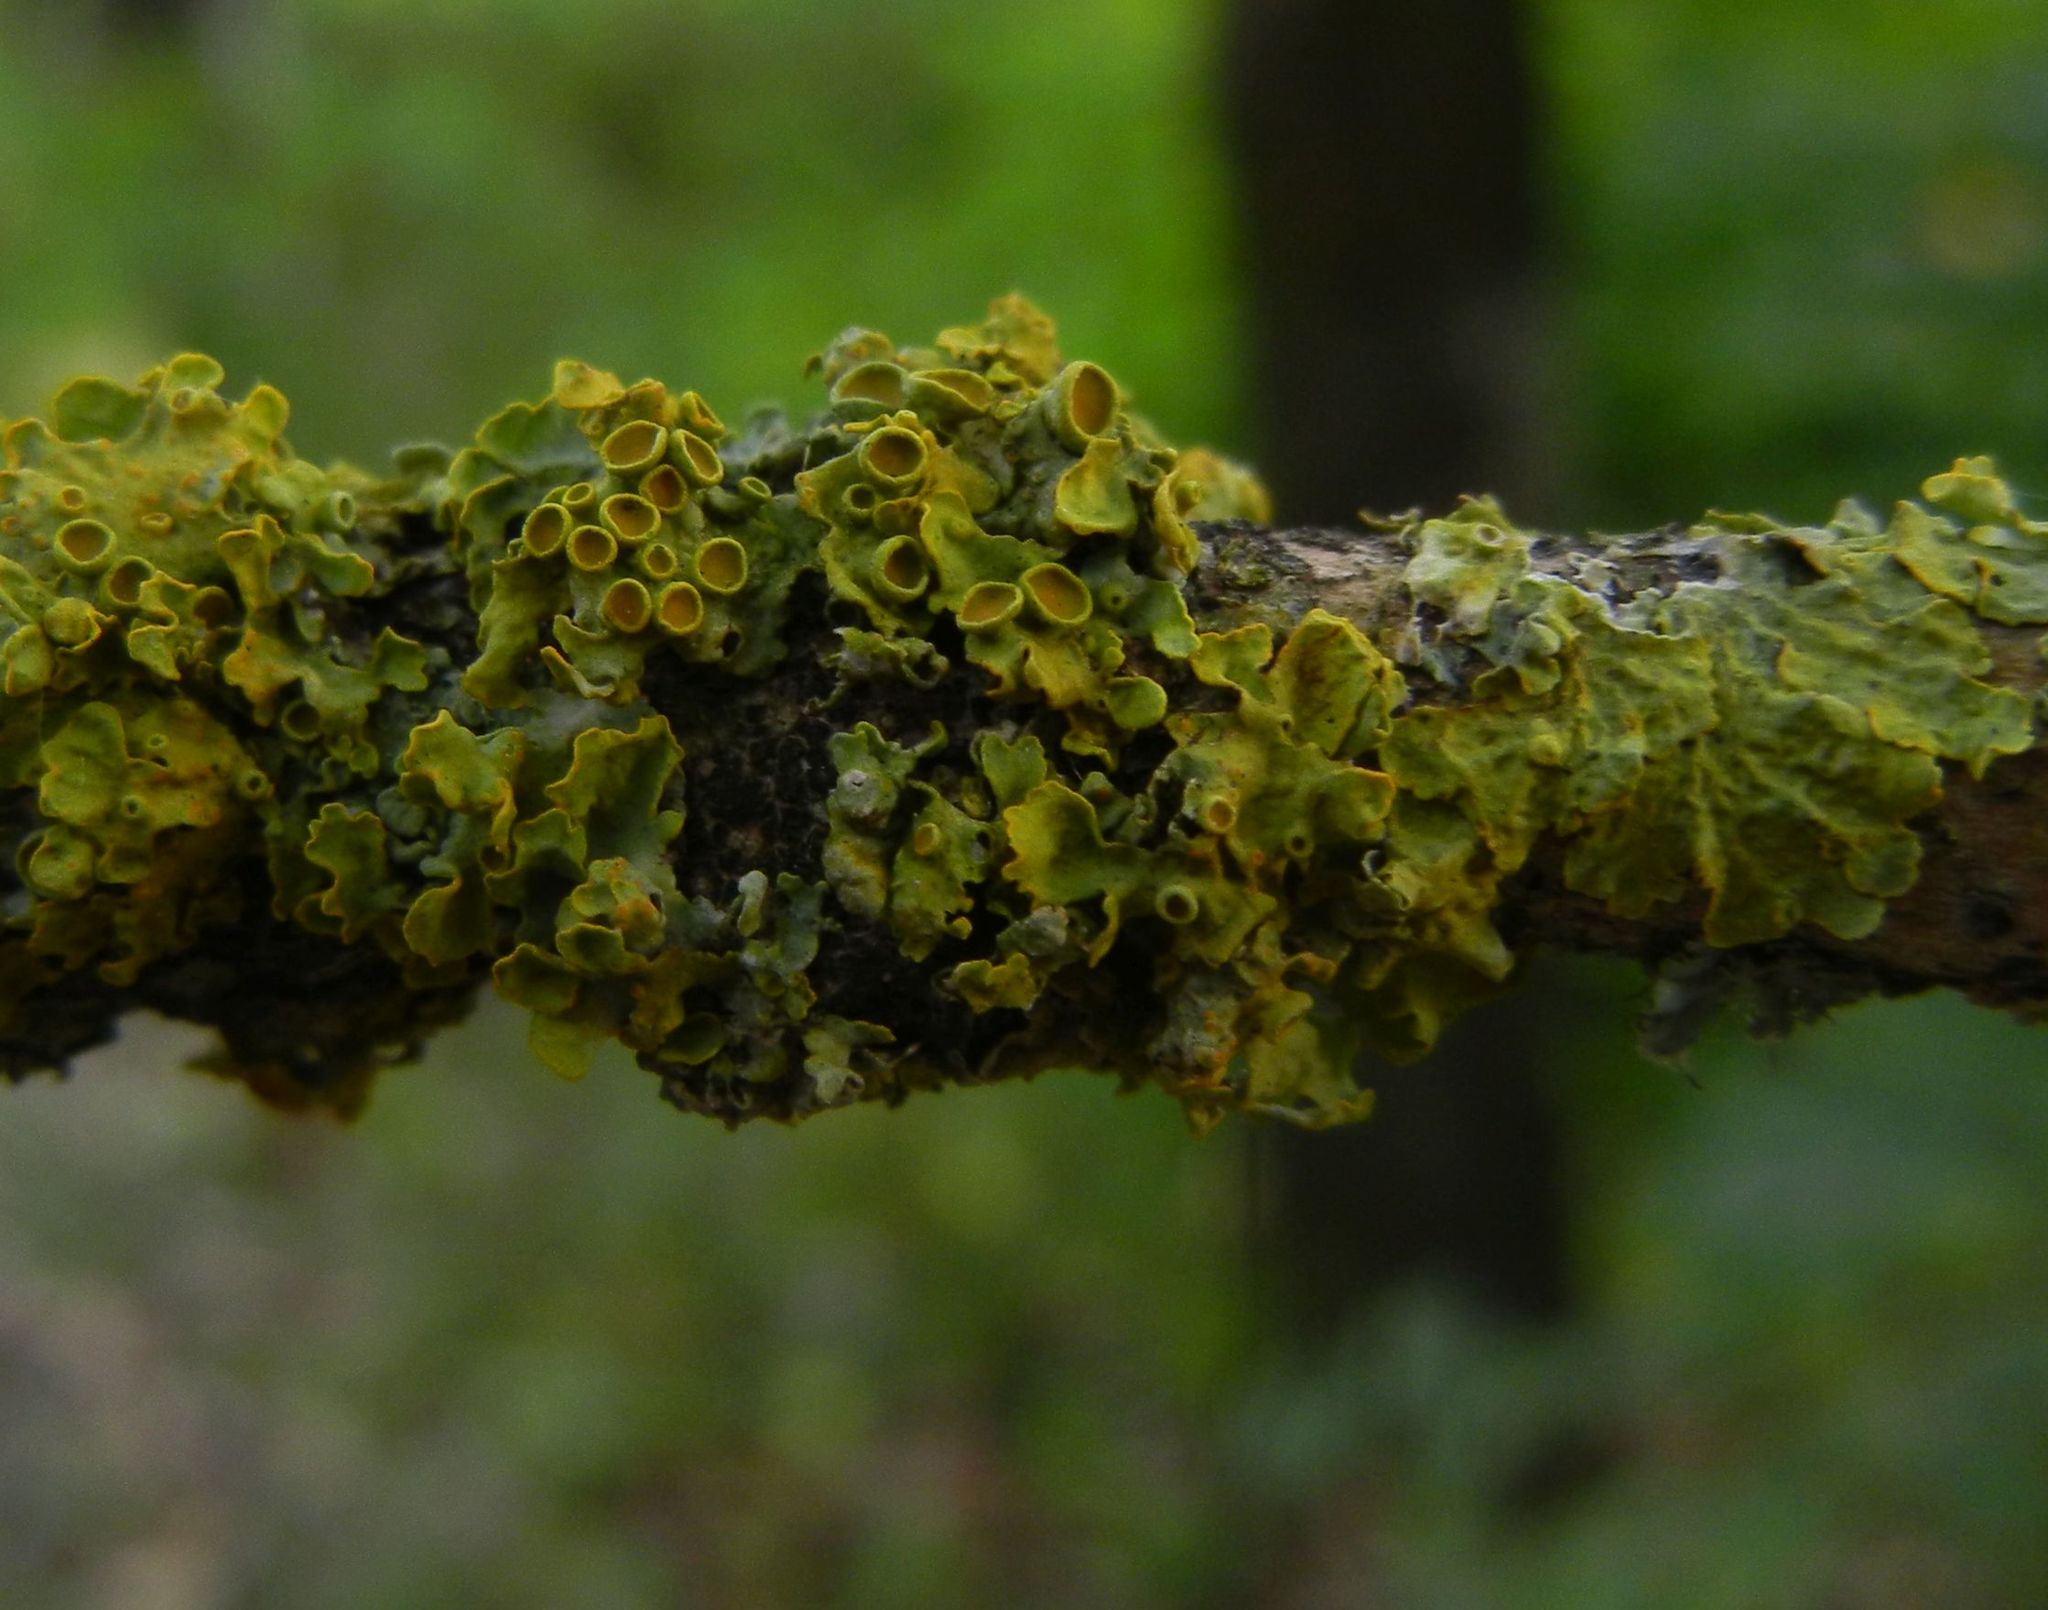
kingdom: Fungi
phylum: Ascomycota
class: Lecanoromycetes
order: Teloschistales
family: Teloschistaceae
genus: Xanthoria
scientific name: Xanthoria parietina
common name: Common orange lichen
